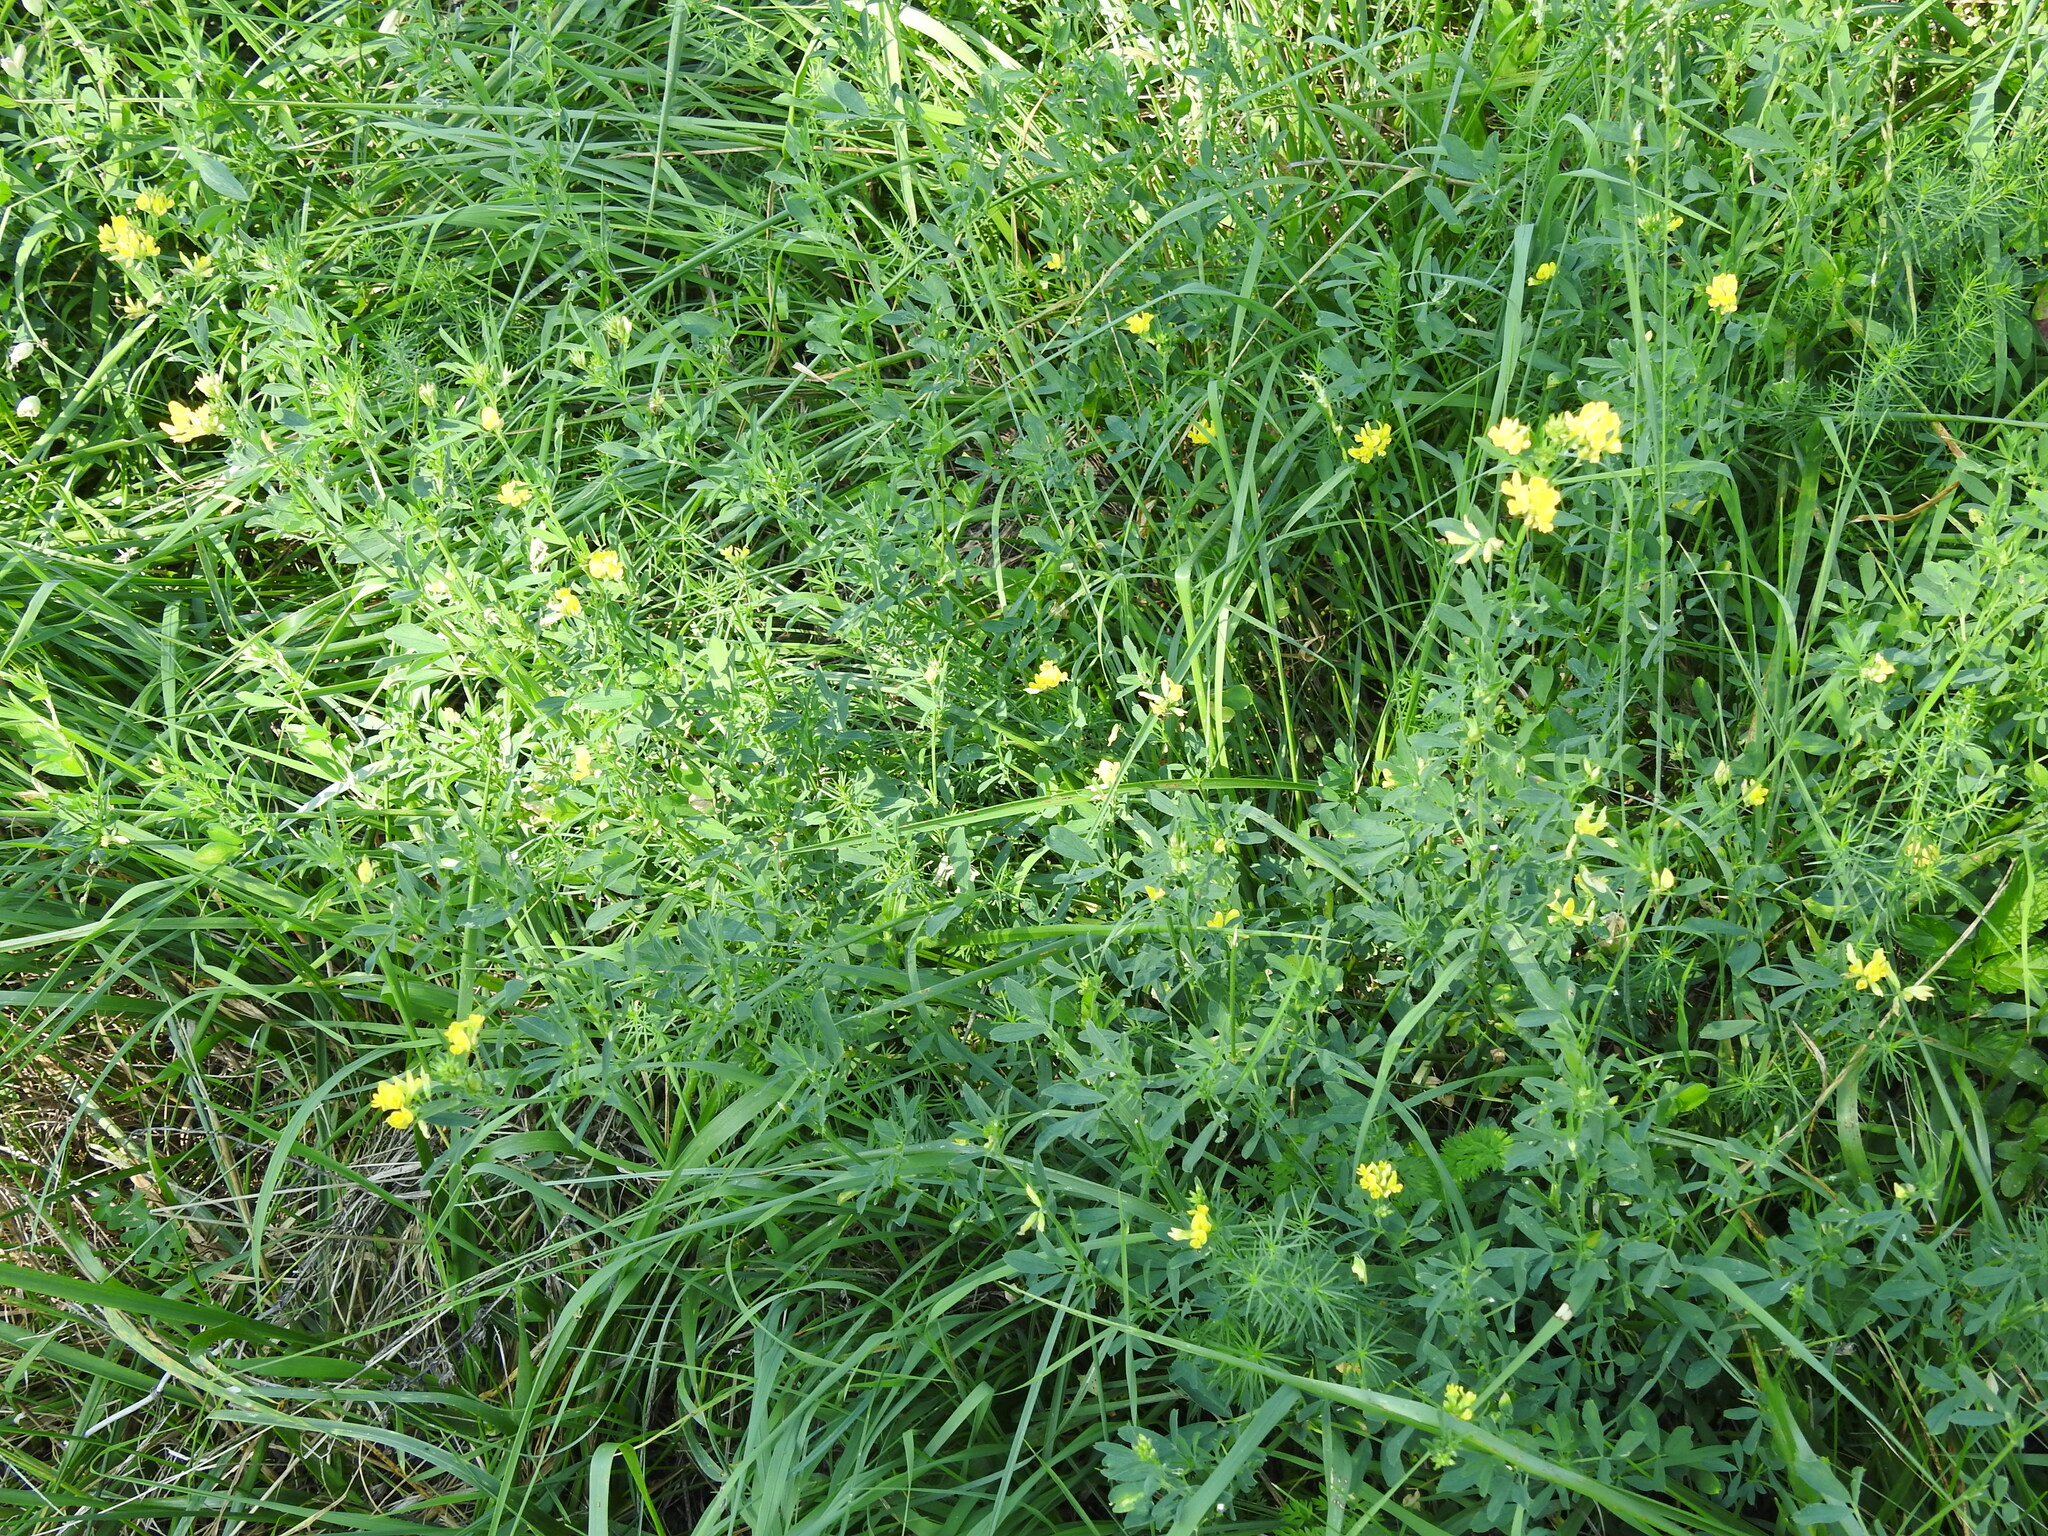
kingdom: Plantae
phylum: Tracheophyta
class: Magnoliopsida
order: Fabales
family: Fabaceae
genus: Medicago
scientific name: Medicago falcata
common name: Sickle medick
